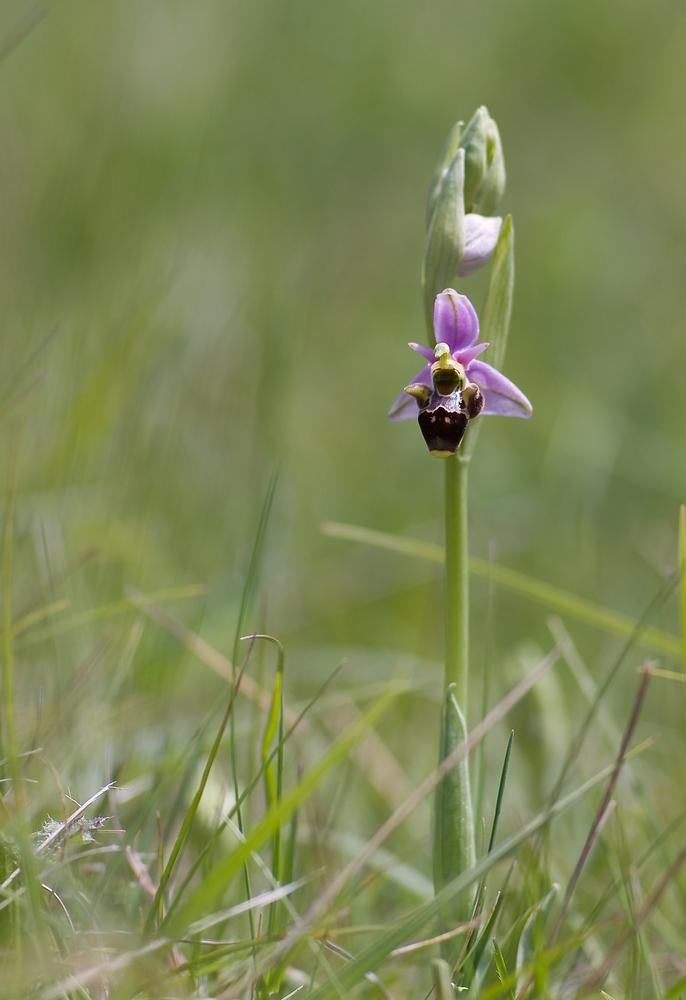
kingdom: Plantae
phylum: Tracheophyta
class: Liliopsida
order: Asparagales
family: Orchidaceae
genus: Ophrys
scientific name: Ophrys scolopax
